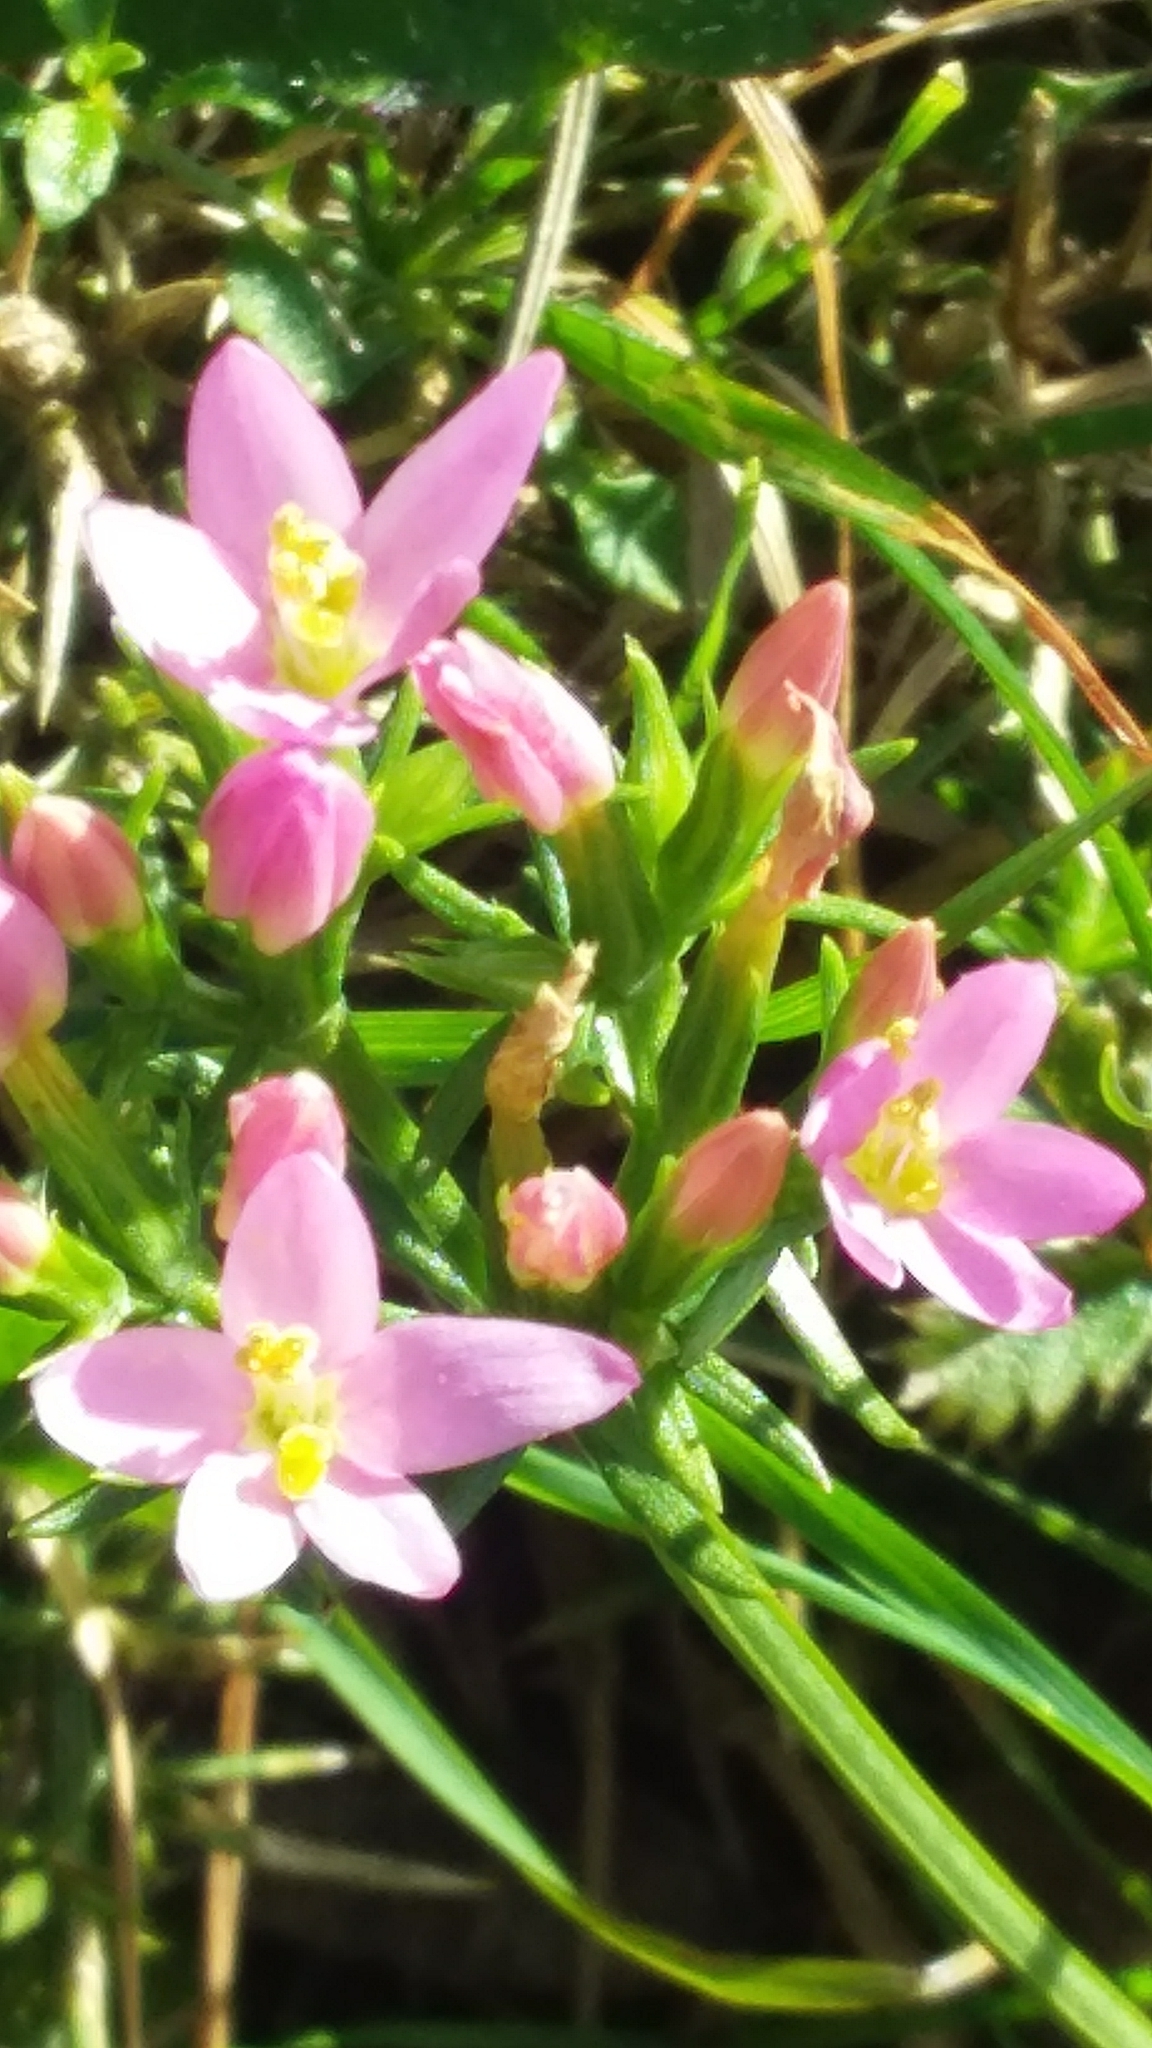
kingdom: Plantae
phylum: Tracheophyta
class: Magnoliopsida
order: Gentianales
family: Gentianaceae
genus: Centaurium
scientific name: Centaurium erythraea
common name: Common centaury
